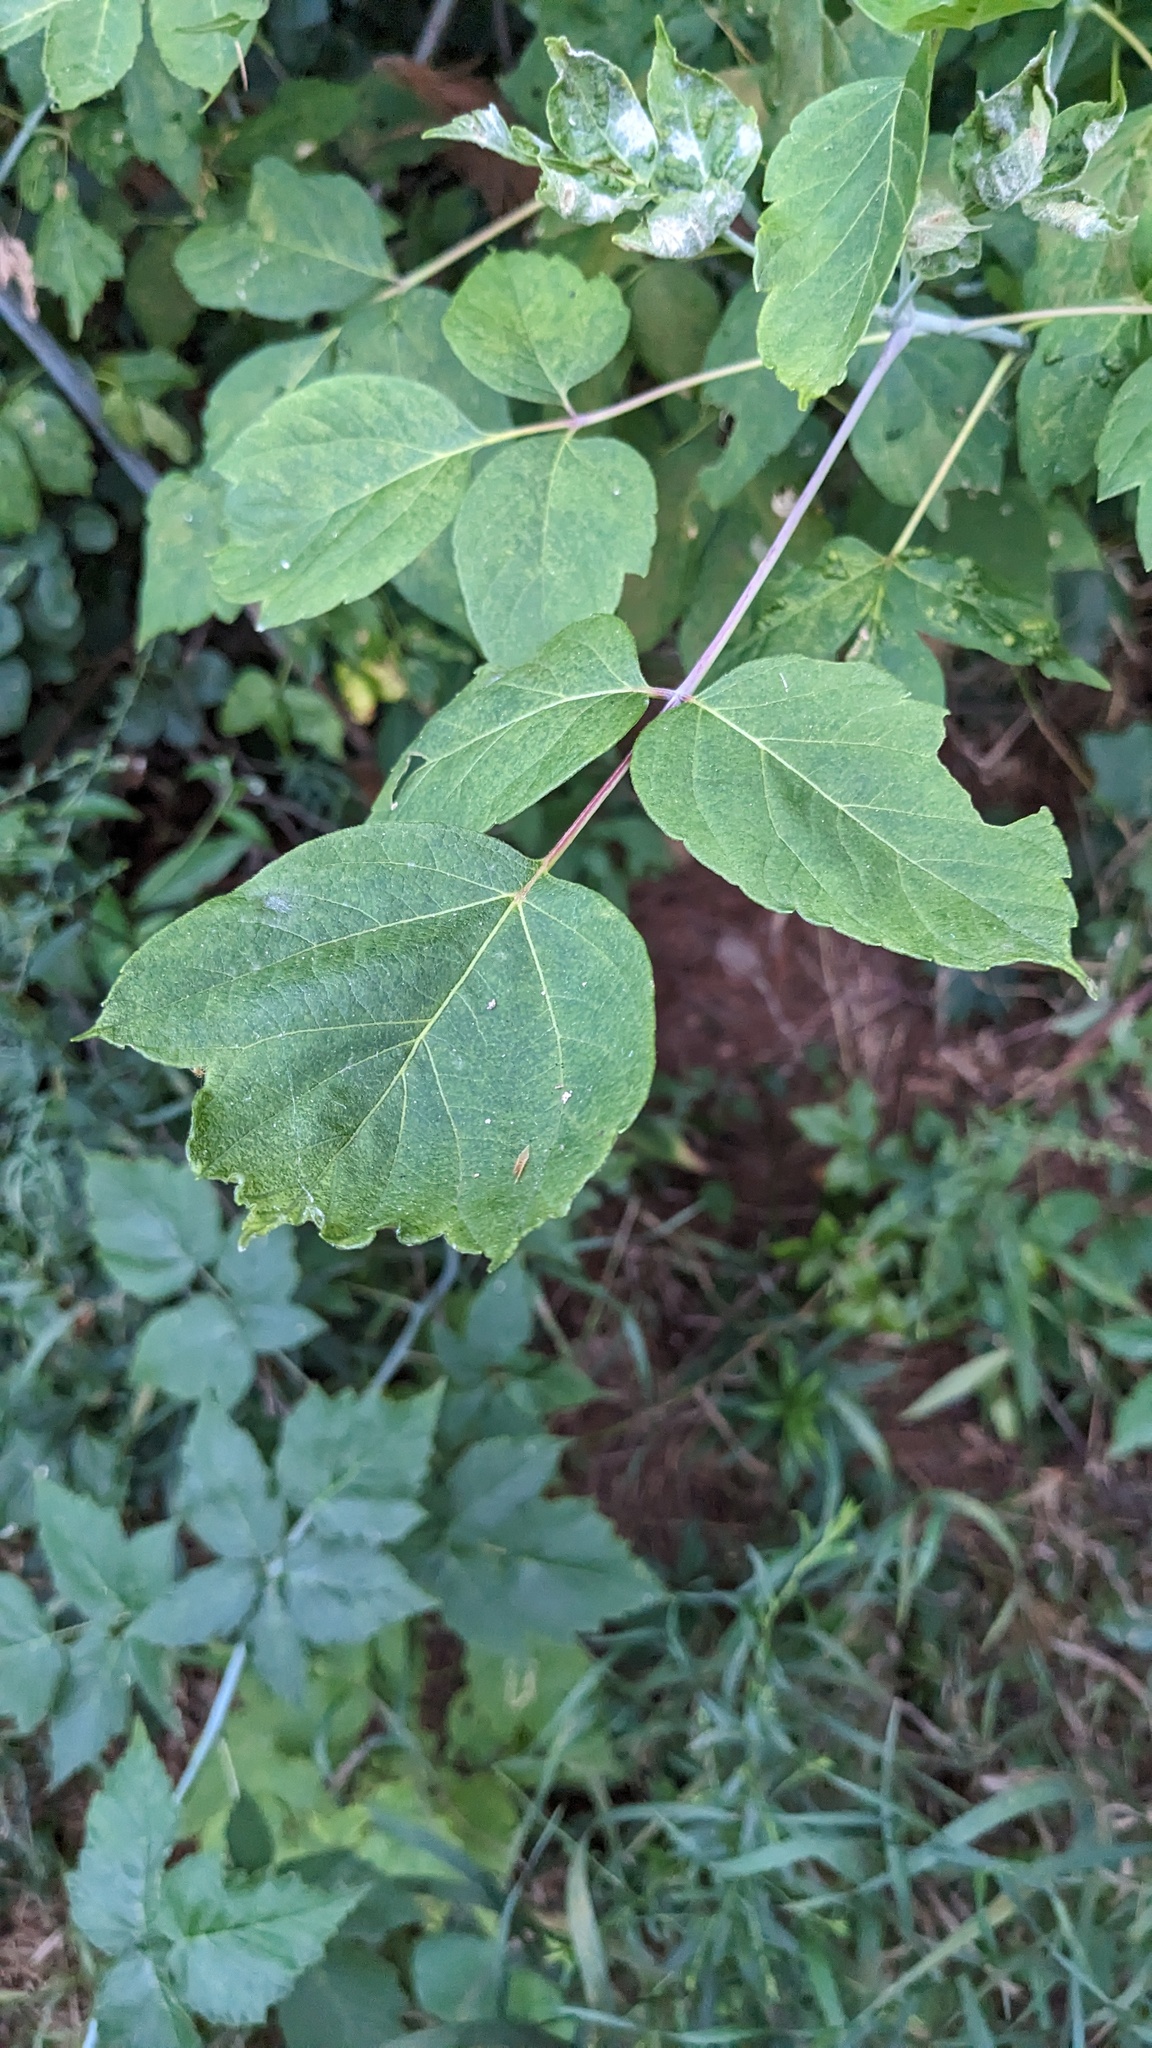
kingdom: Animalia
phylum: Arthropoda
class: Arachnida
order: Trombidiformes
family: Eriophyidae
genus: Aceria
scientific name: Aceria
